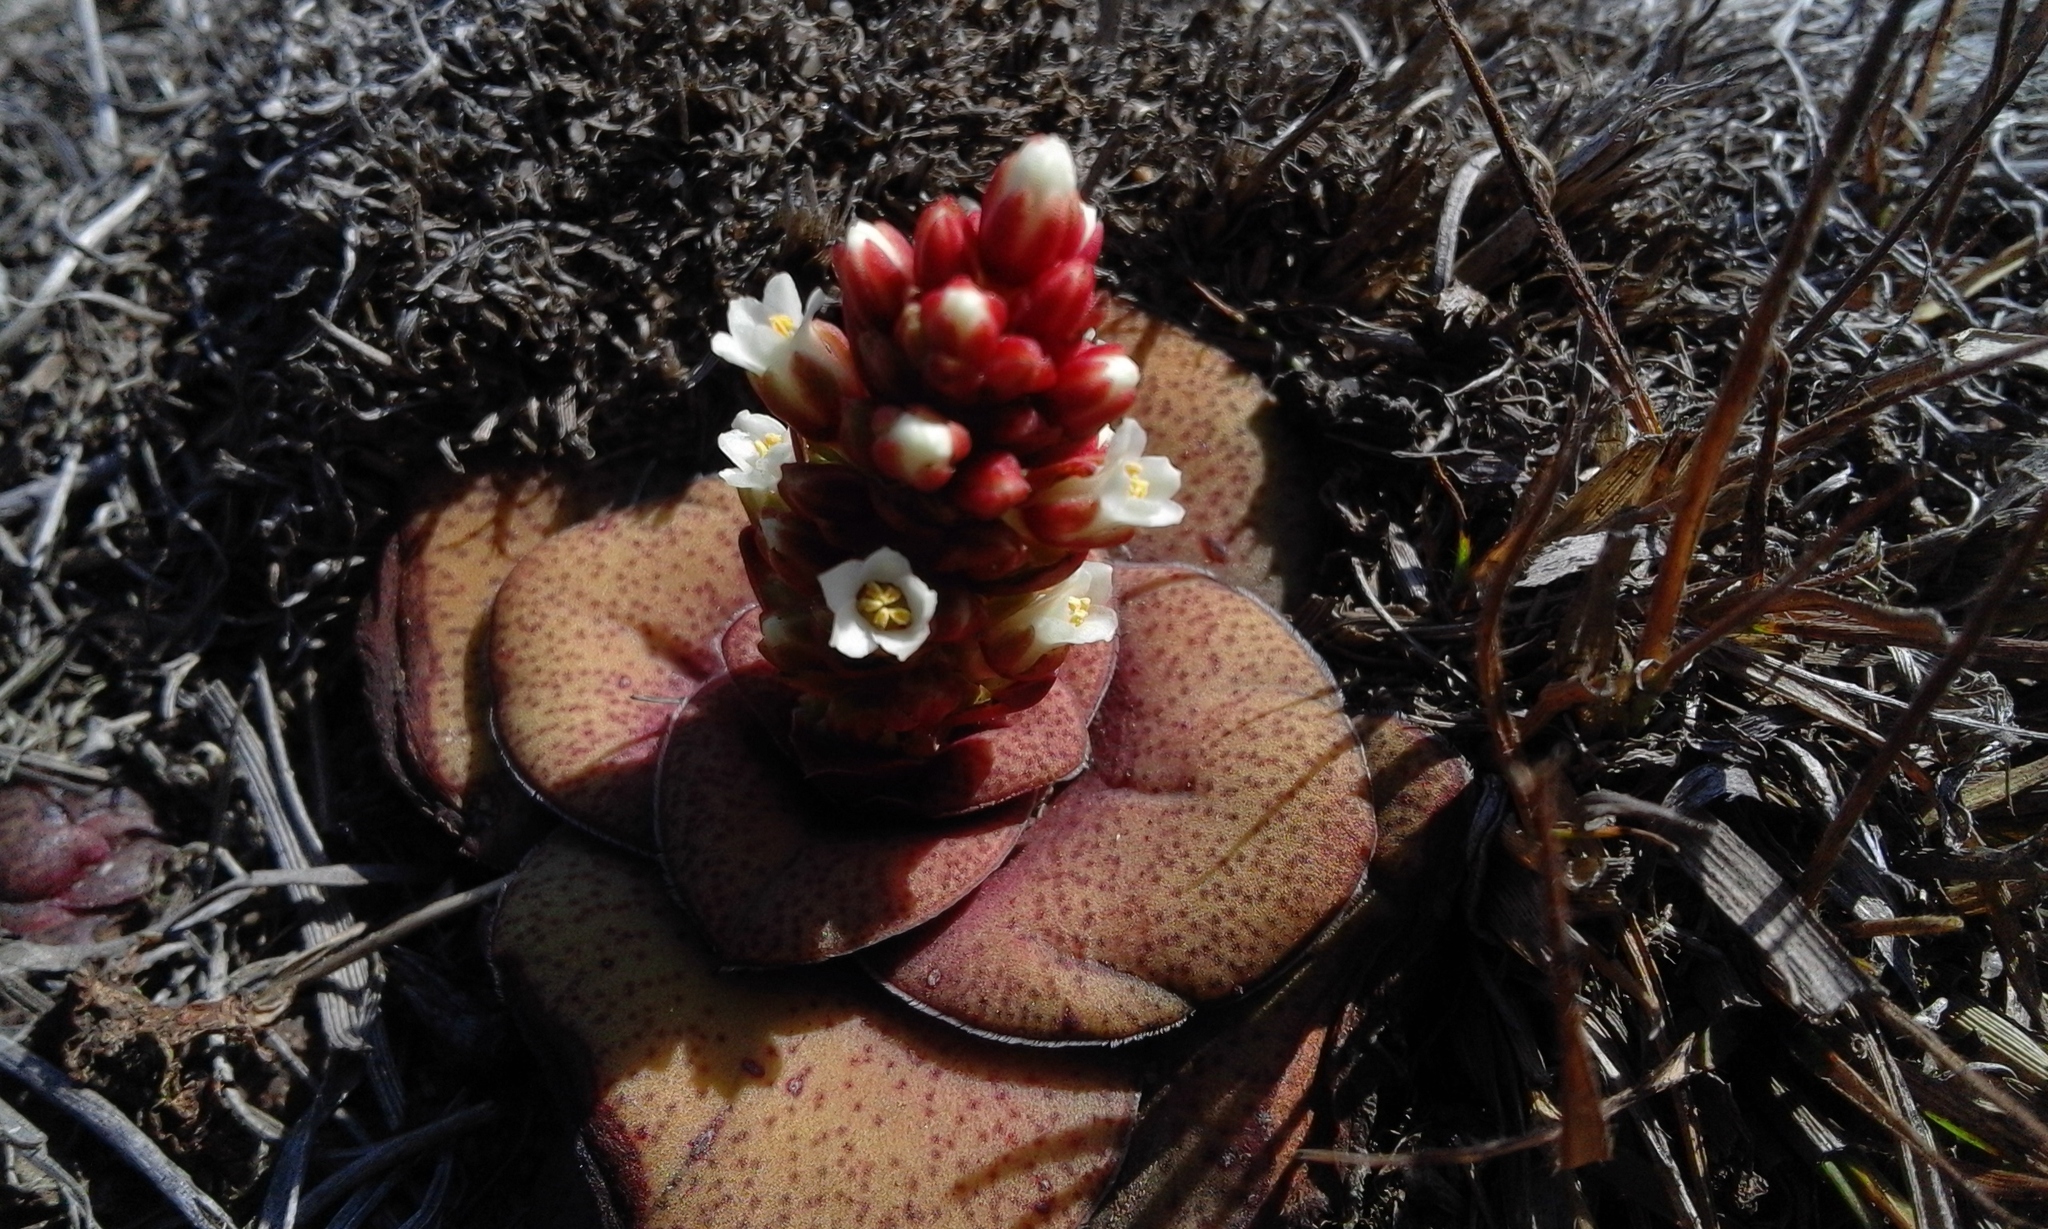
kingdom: Plantae
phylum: Tracheophyta
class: Magnoliopsida
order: Saxifragales
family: Crassulaceae
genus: Crassula
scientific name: Crassula compacta
